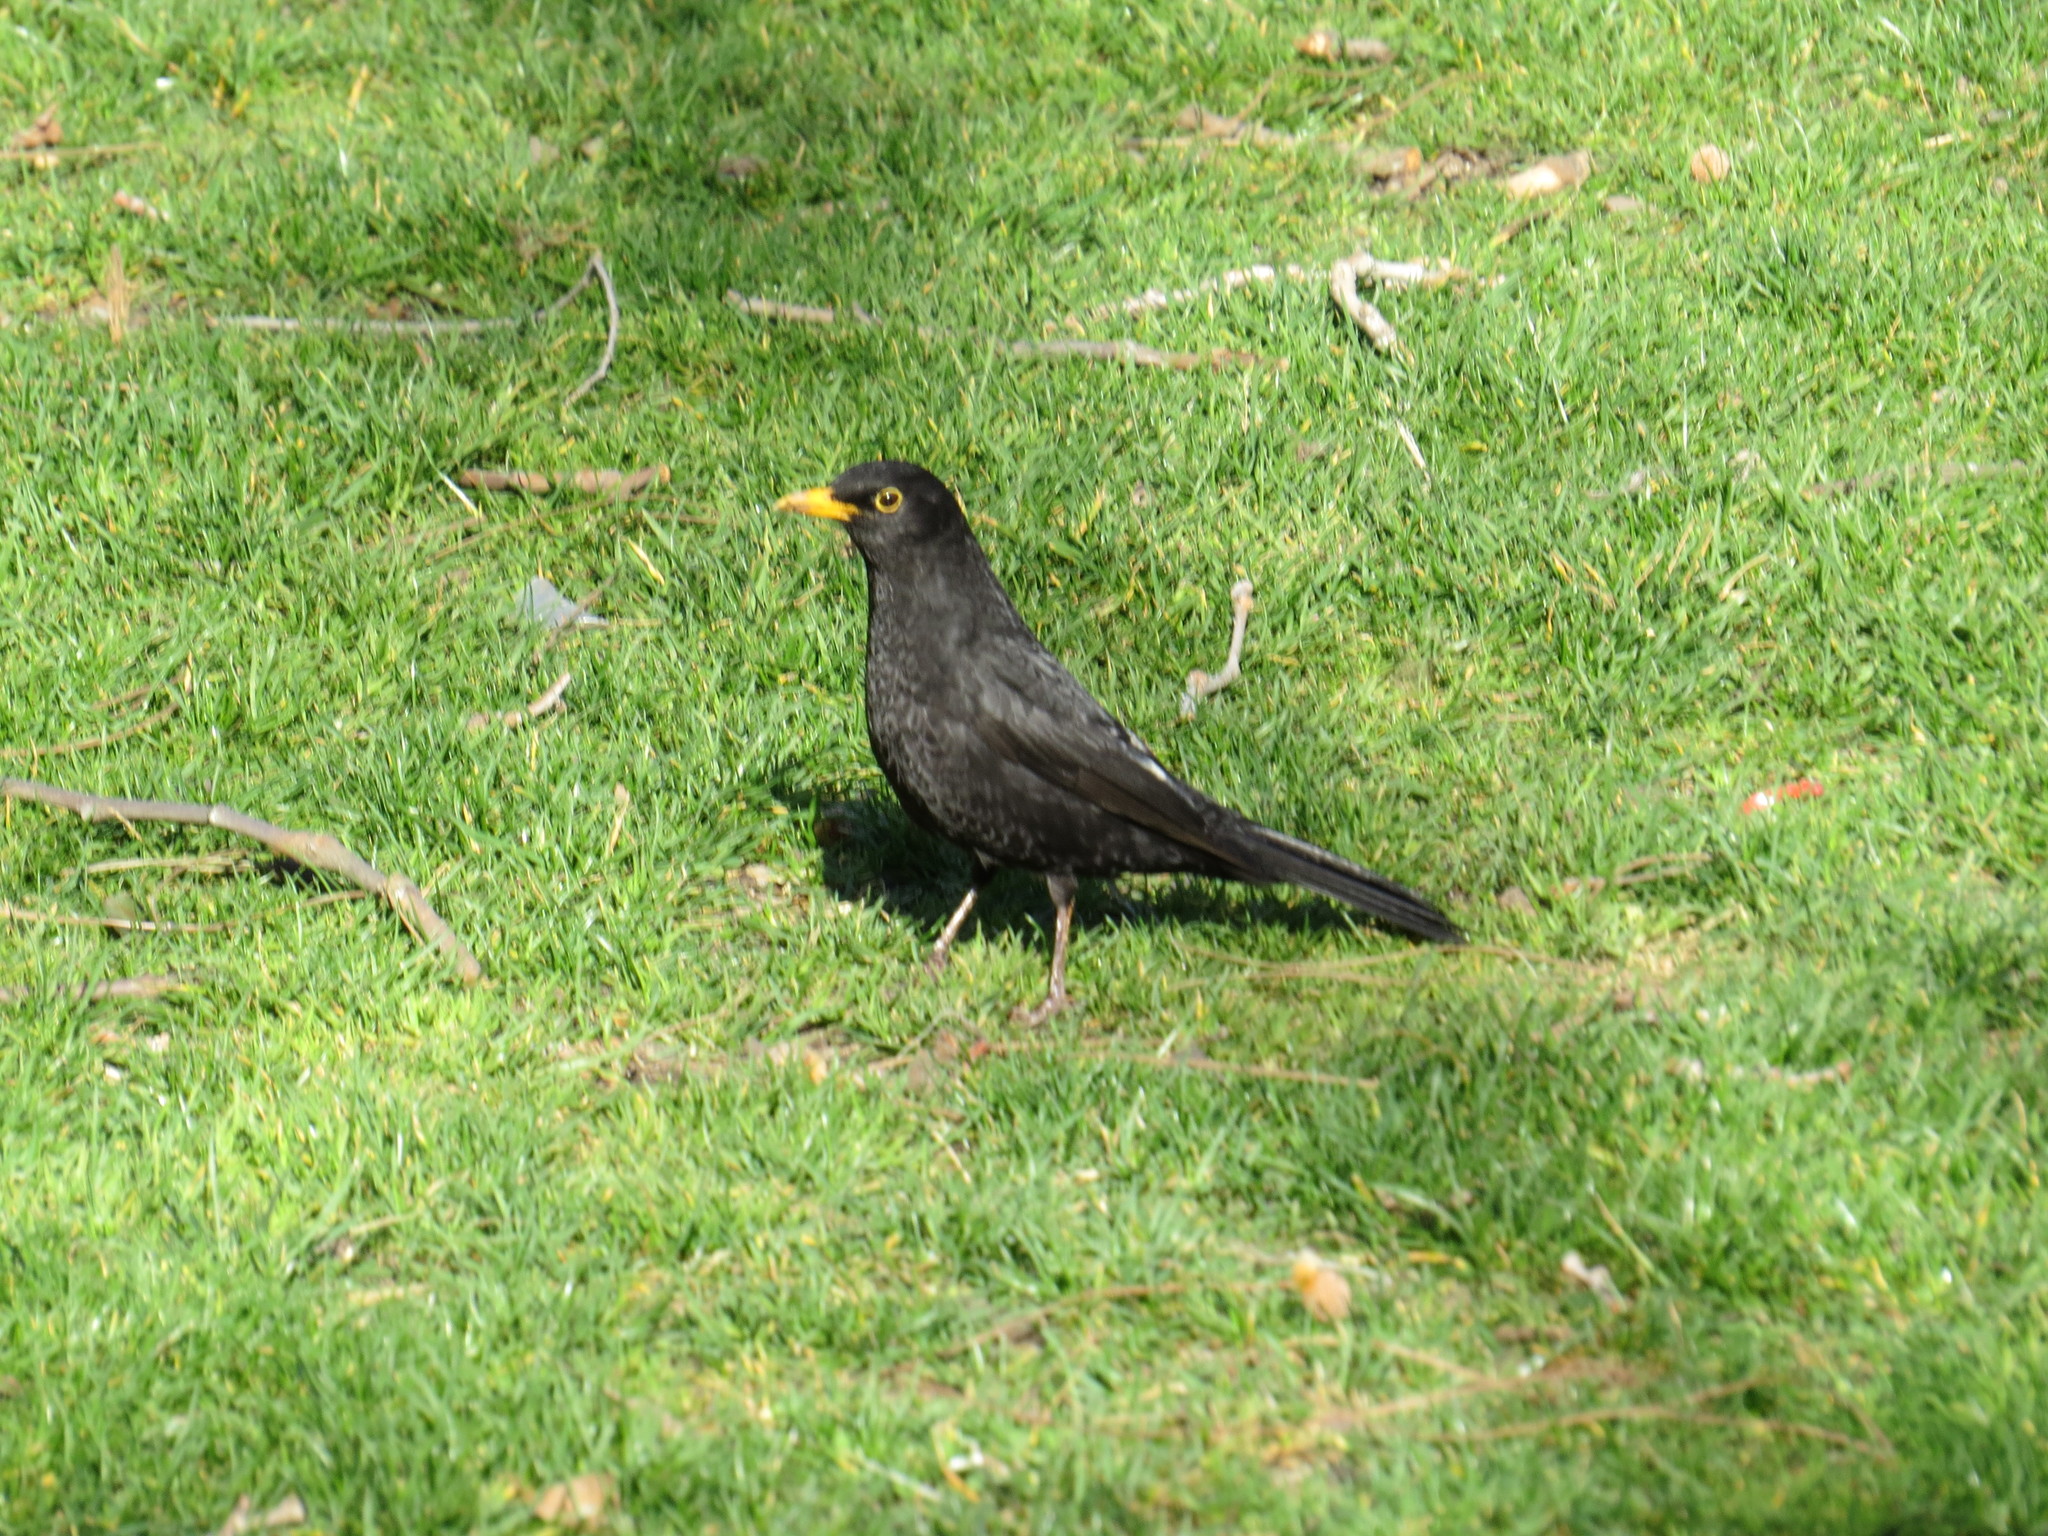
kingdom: Animalia
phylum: Chordata
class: Aves
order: Passeriformes
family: Turdidae
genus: Turdus
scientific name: Turdus merula
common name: Common blackbird
